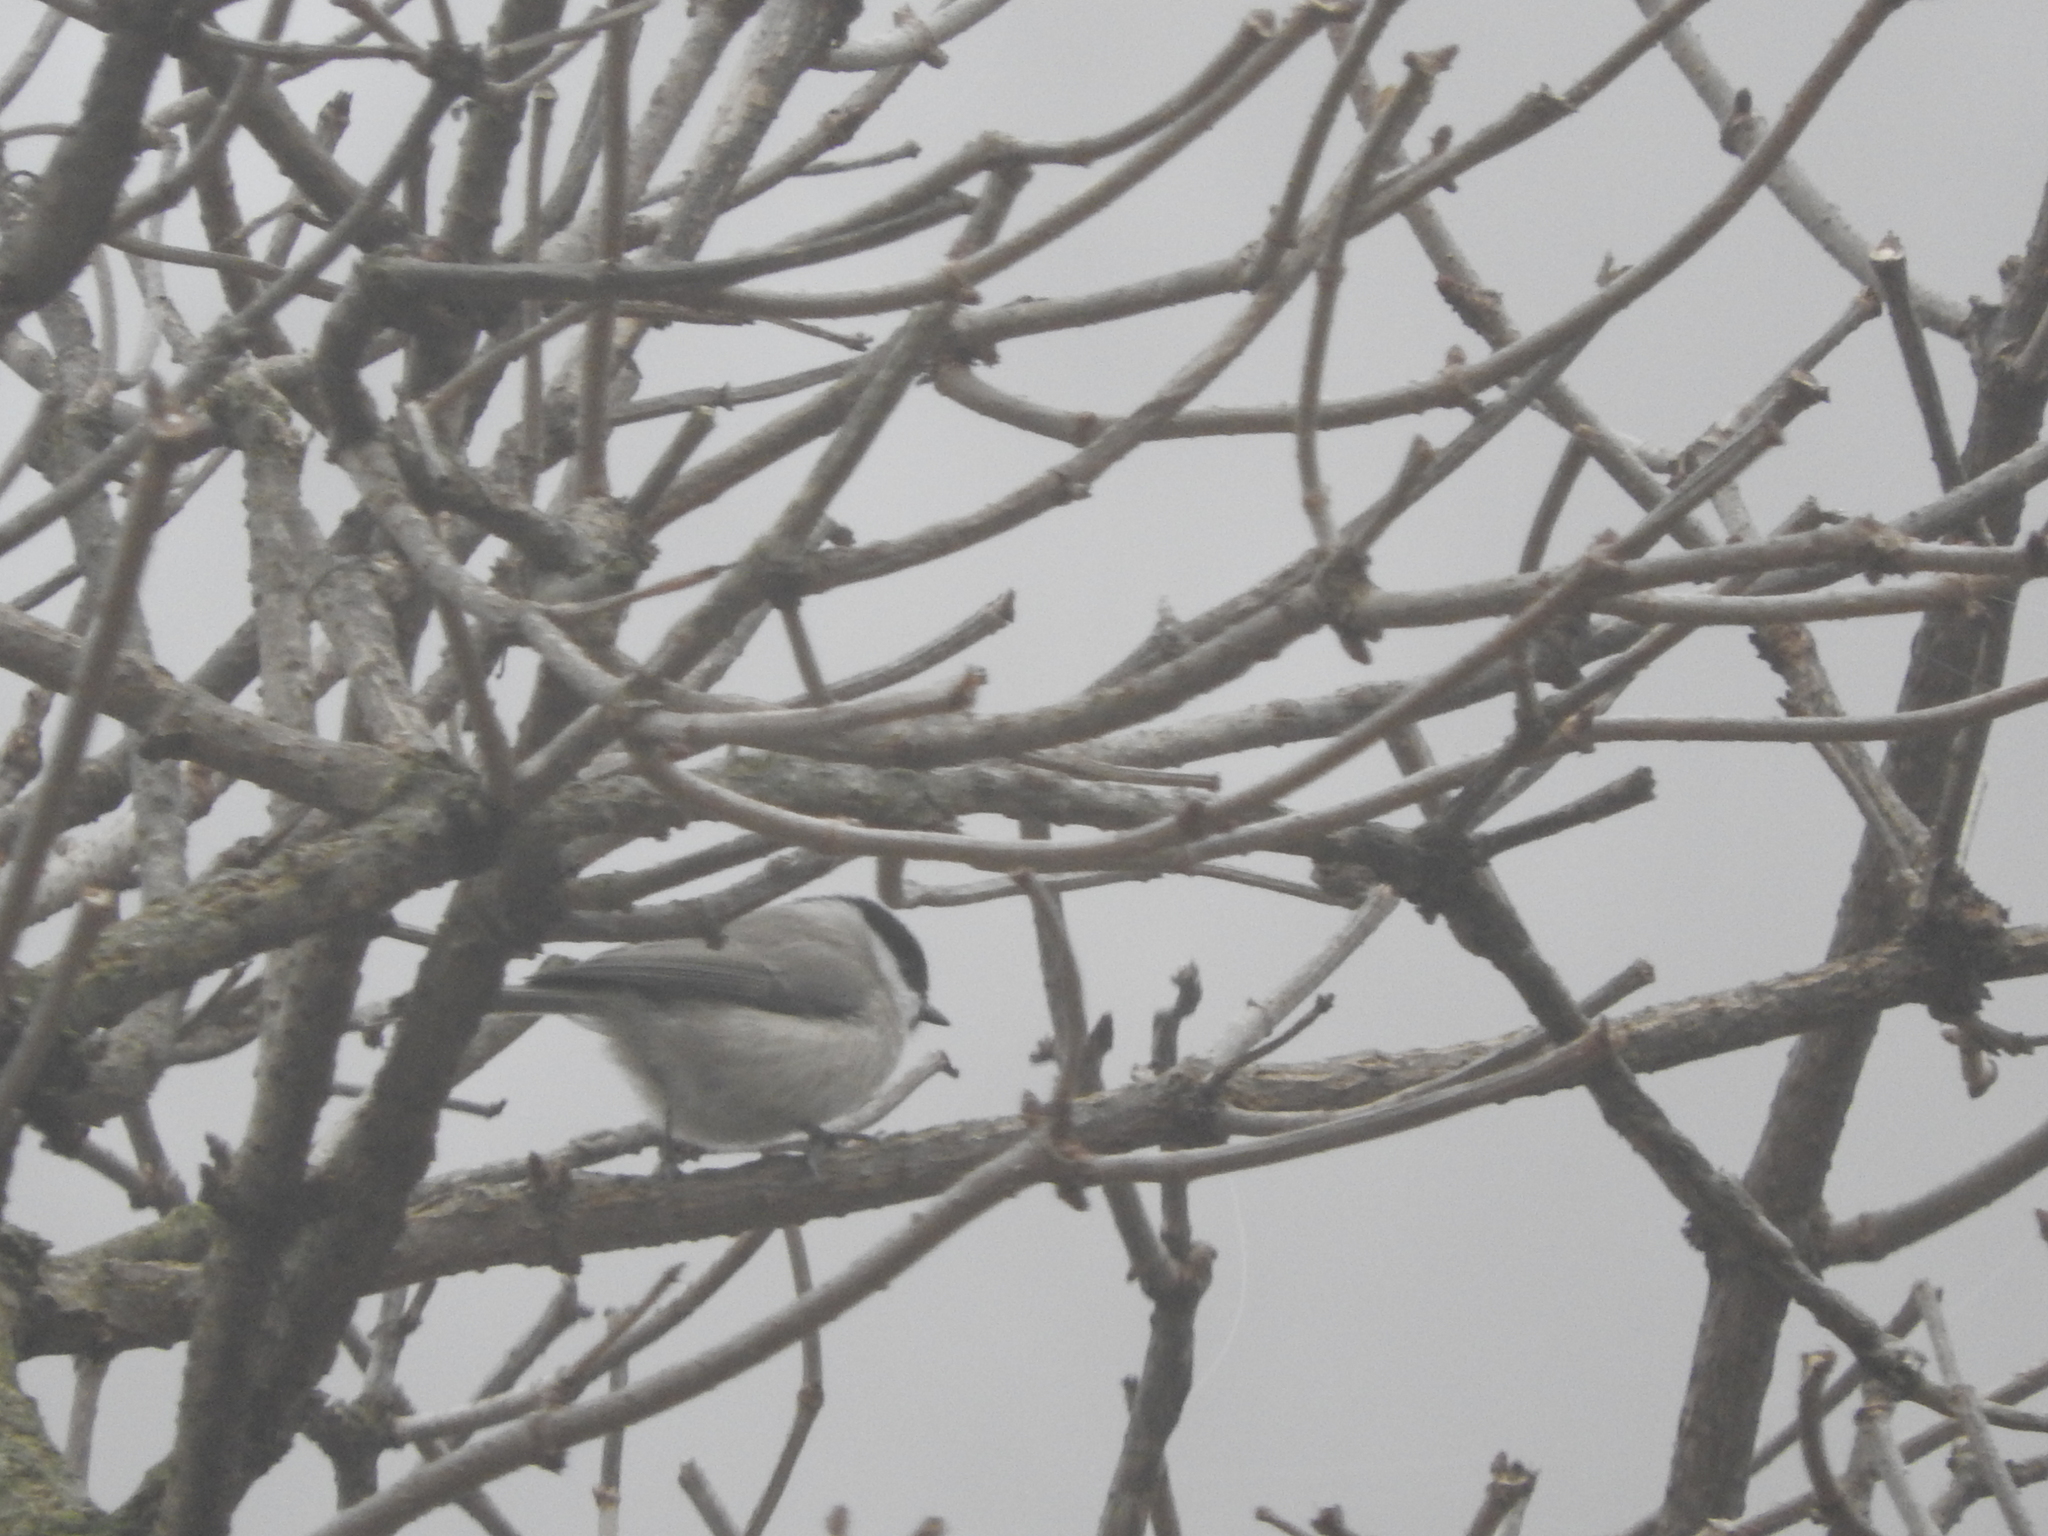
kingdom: Animalia
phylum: Chordata
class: Aves
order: Passeriformes
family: Paridae
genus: Poecile
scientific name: Poecile palustris
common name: Marsh tit
